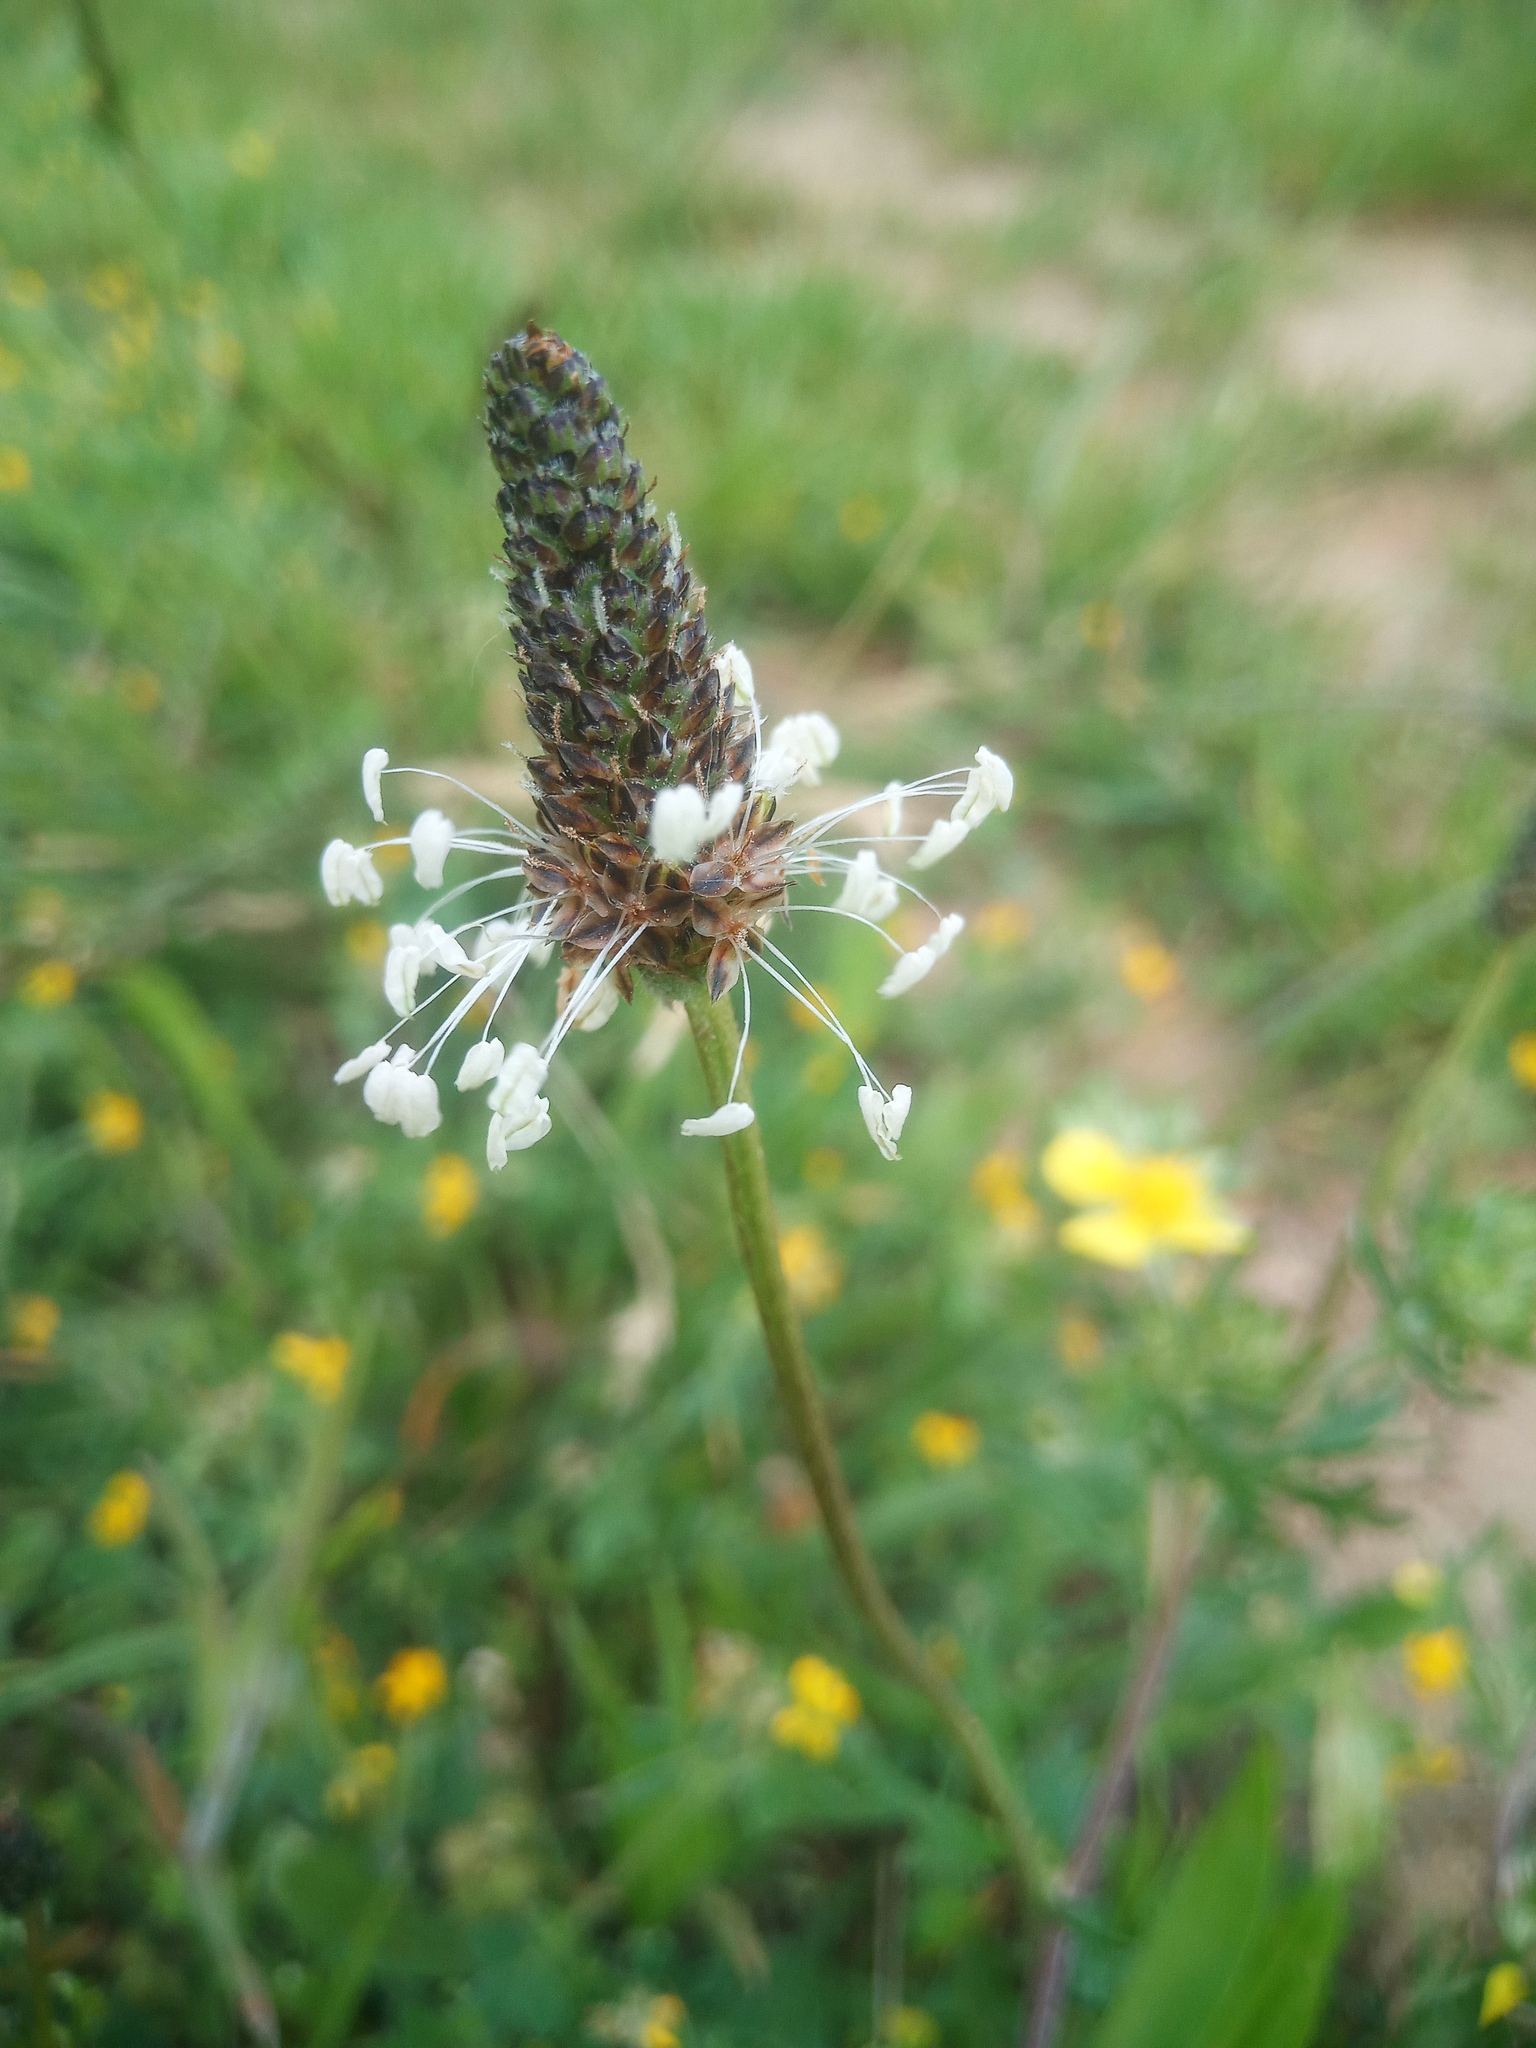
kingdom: Plantae
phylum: Tracheophyta
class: Magnoliopsida
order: Lamiales
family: Plantaginaceae
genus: Plantago
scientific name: Plantago lanceolata
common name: Ribwort plantain
